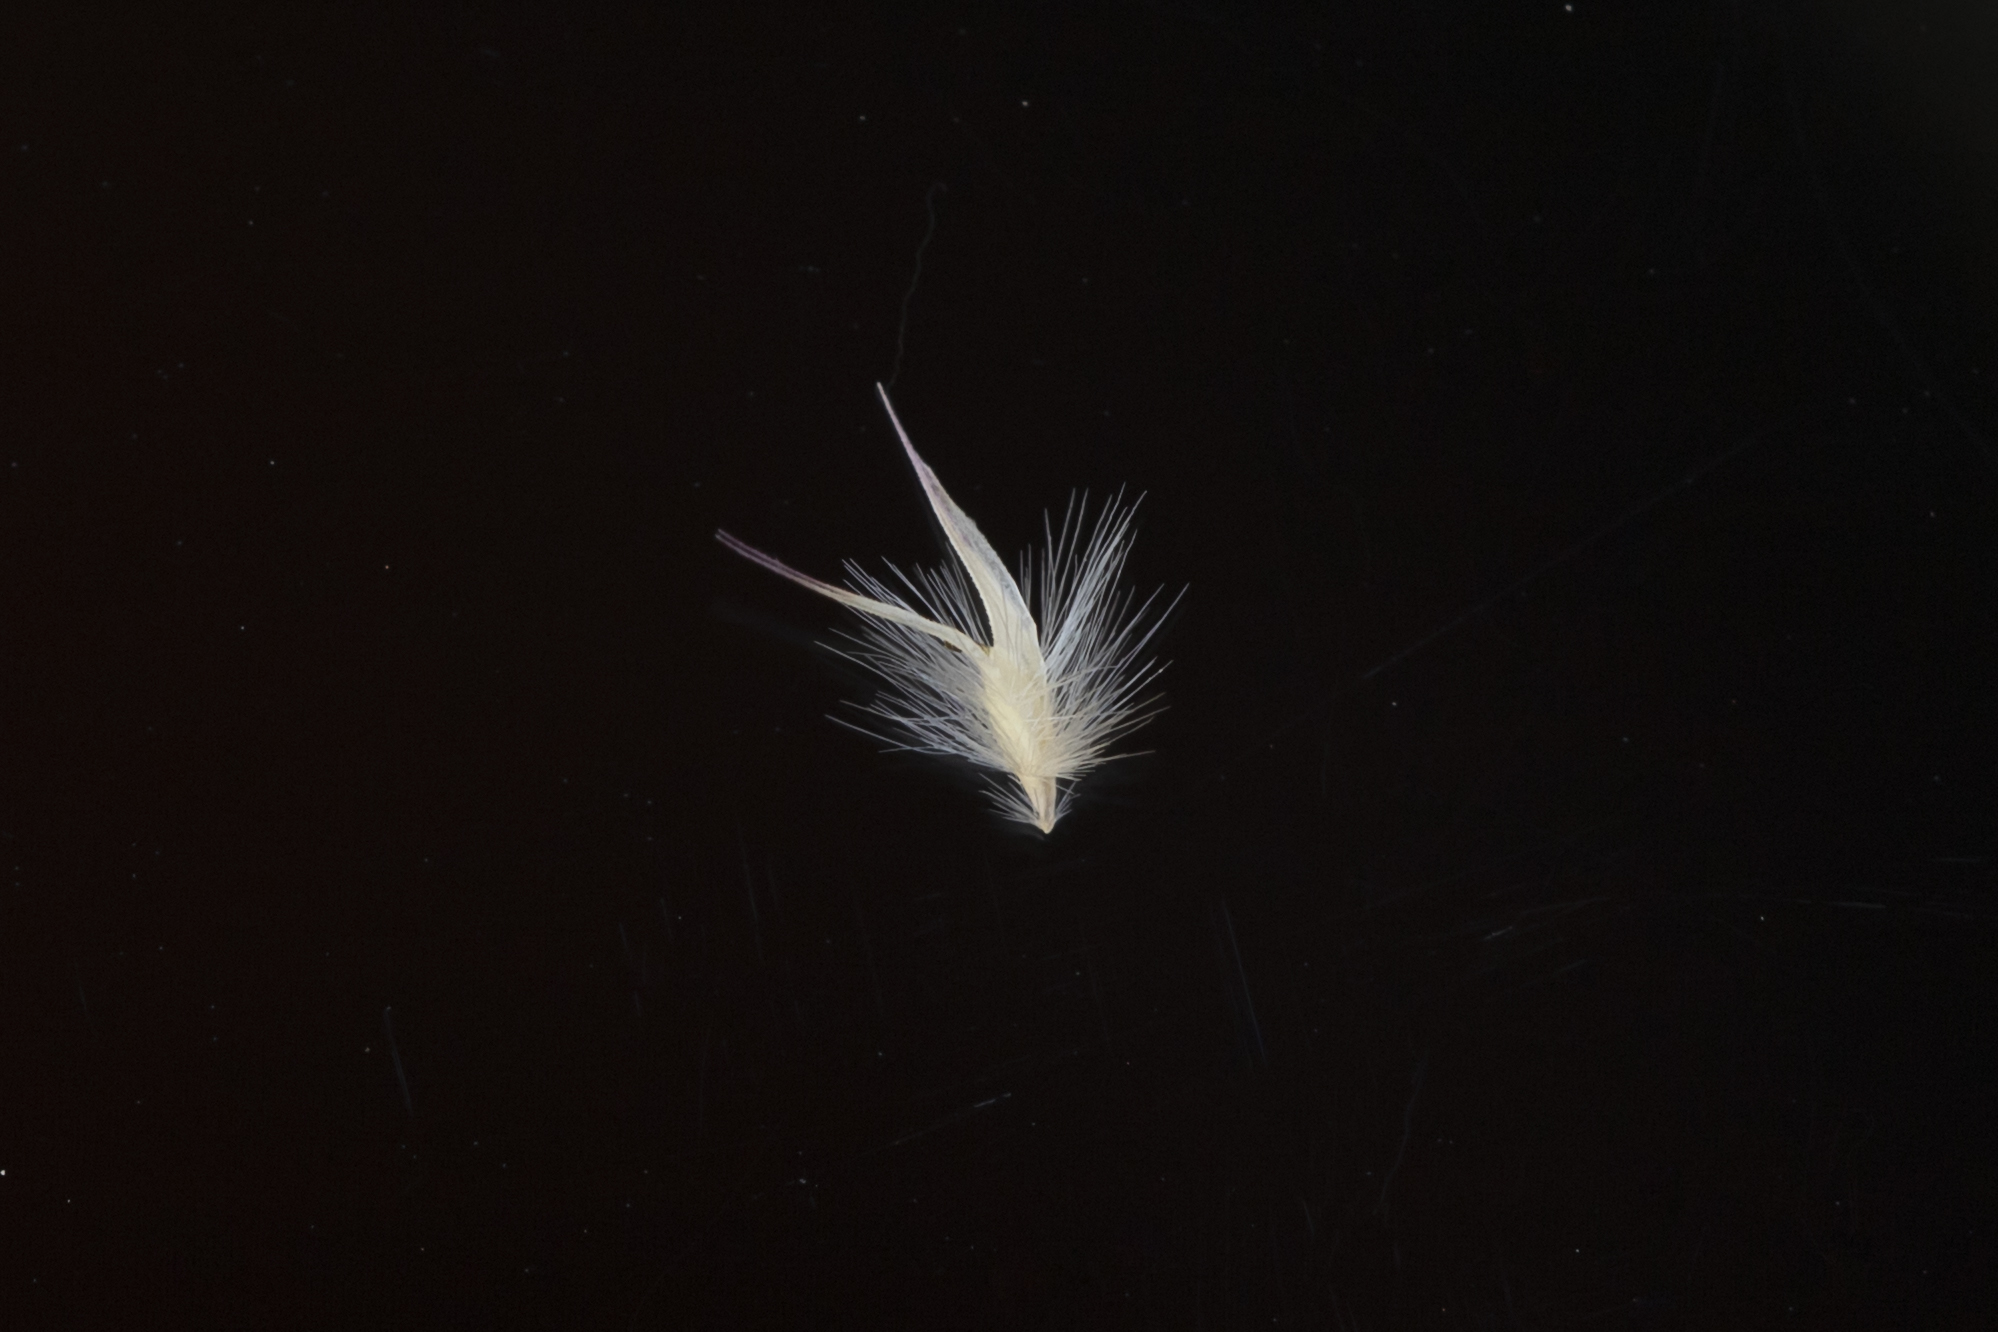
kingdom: Plantae
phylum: Tracheophyta
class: Liliopsida
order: Poales
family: Poaceae
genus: Rytidosperma
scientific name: Rytidosperma geniculatum
